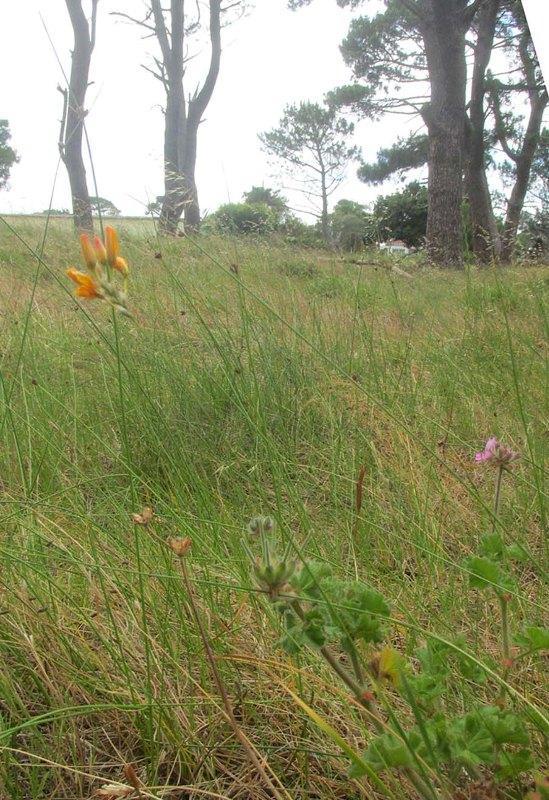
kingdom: Plantae
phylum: Tracheophyta
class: Liliopsida
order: Asparagales
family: Iridaceae
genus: Ixia
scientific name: Ixia dubia
